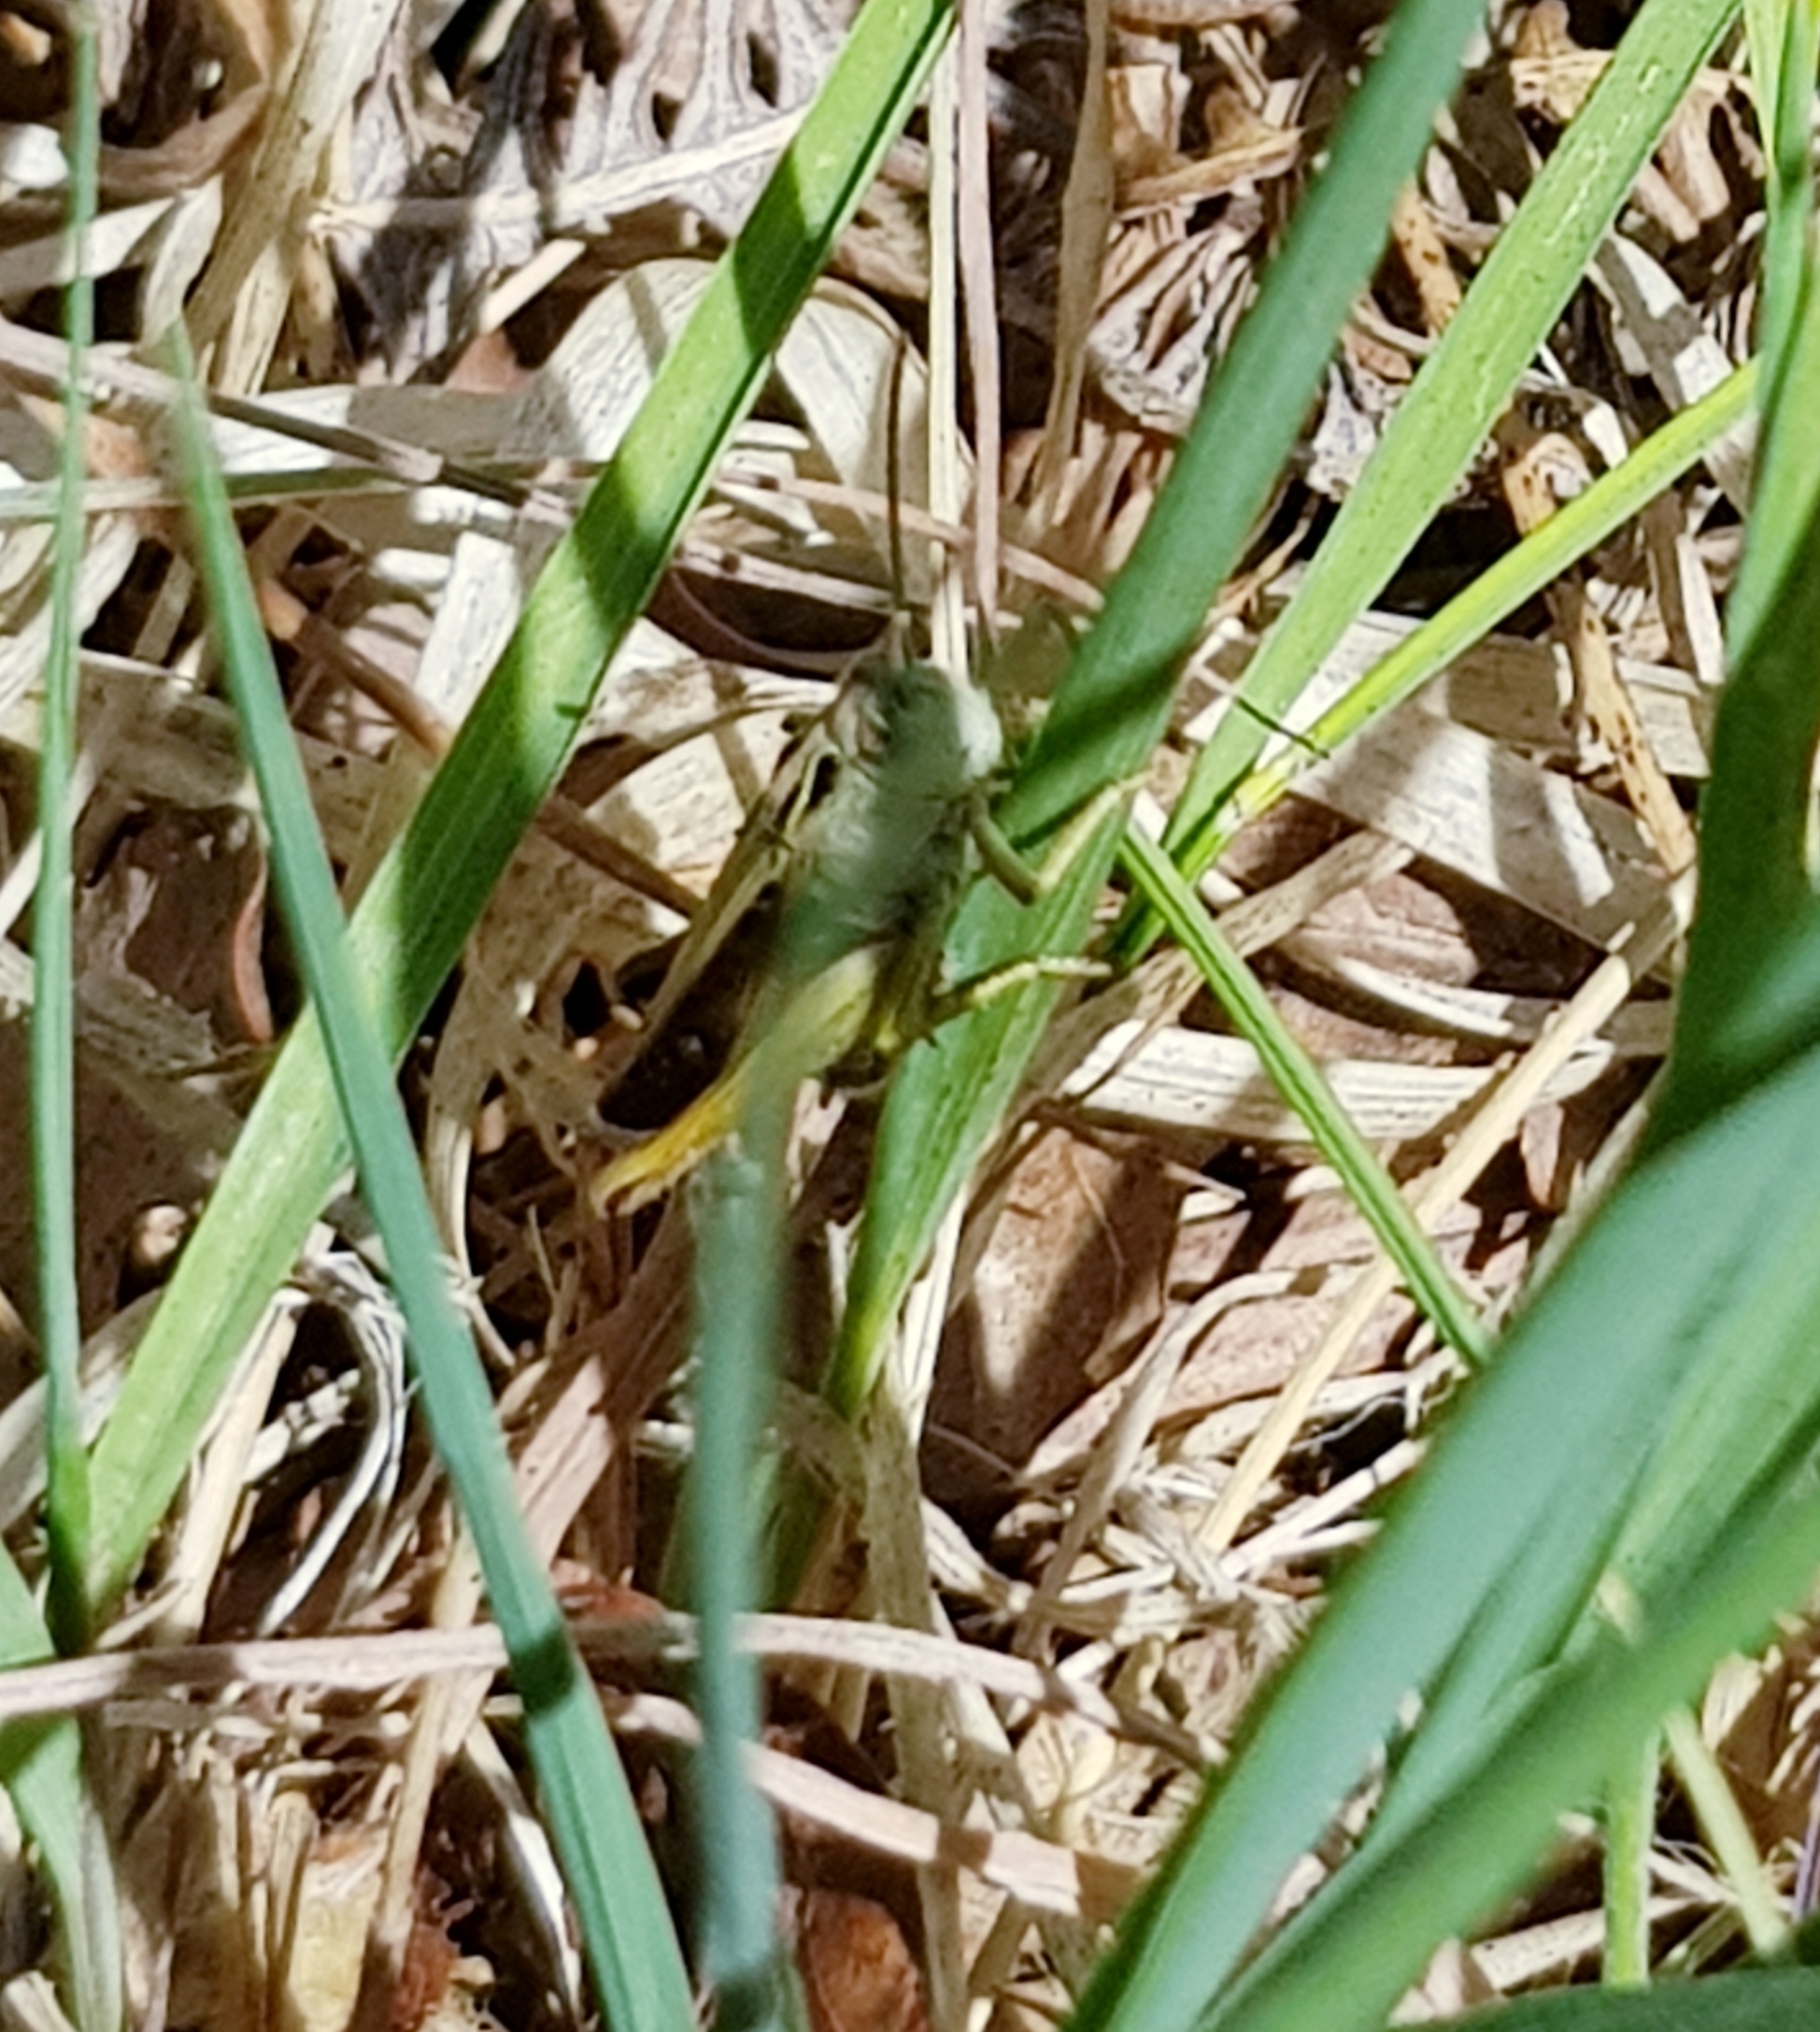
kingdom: Animalia
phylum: Arthropoda
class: Insecta
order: Orthoptera
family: Acrididae
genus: Omocestus
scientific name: Omocestus viridulus
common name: Common green grasshopper
